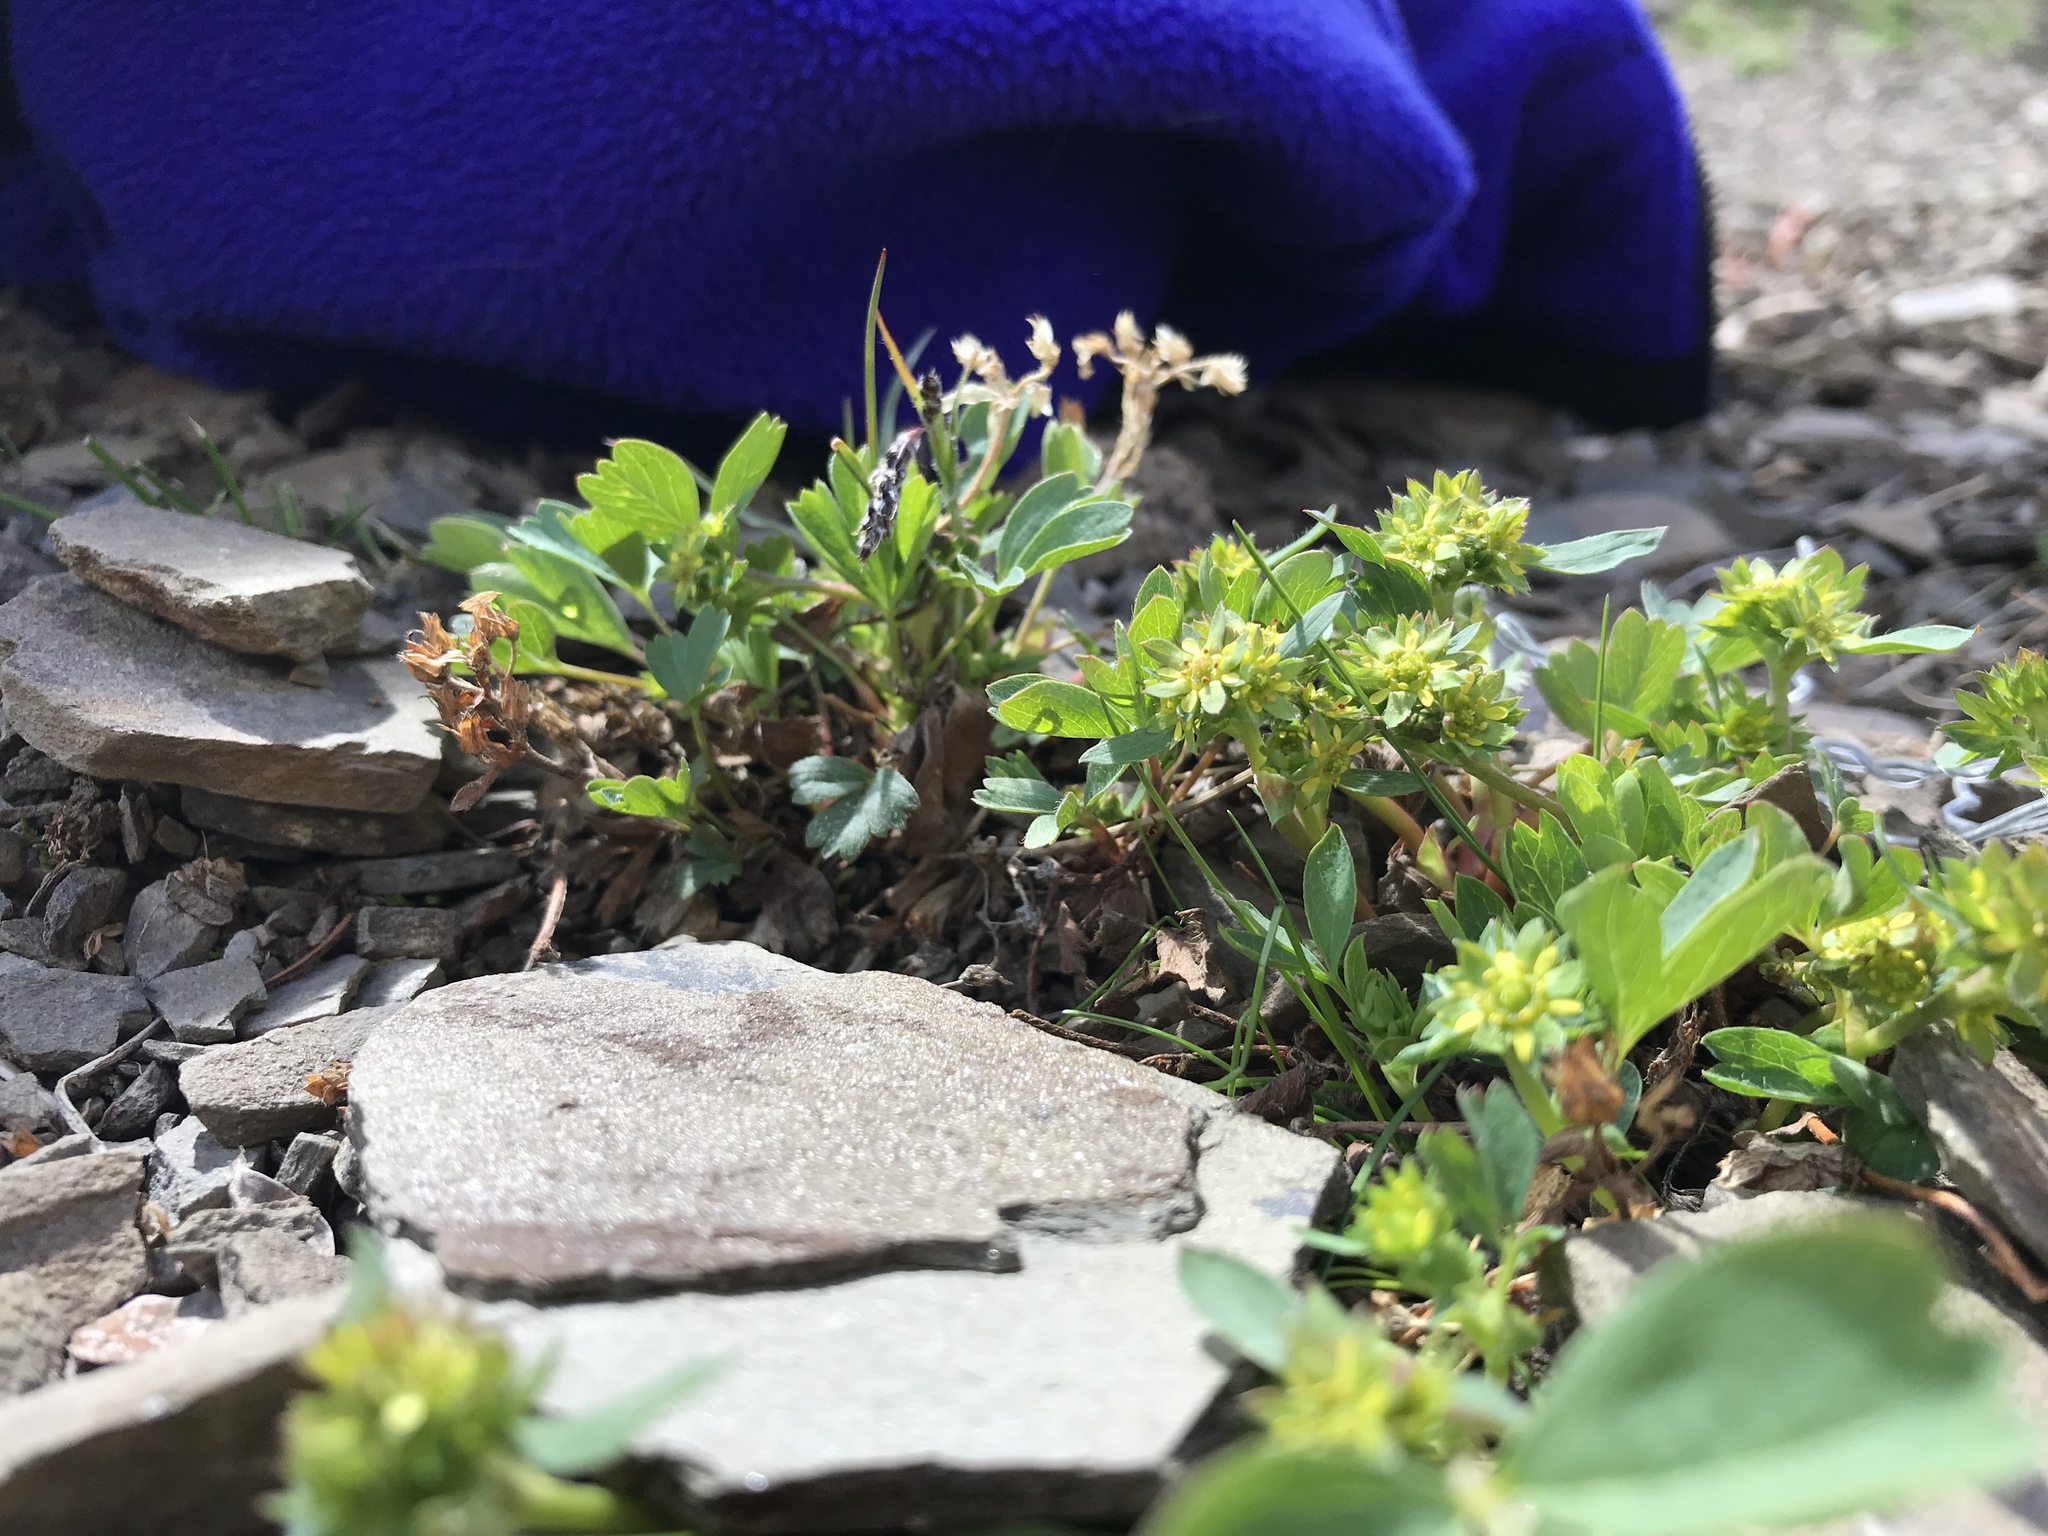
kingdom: Plantae
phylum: Tracheophyta
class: Magnoliopsida
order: Rosales
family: Rosaceae
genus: Sibbaldia
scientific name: Sibbaldia procumbens
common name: Creeping sibbaldia
